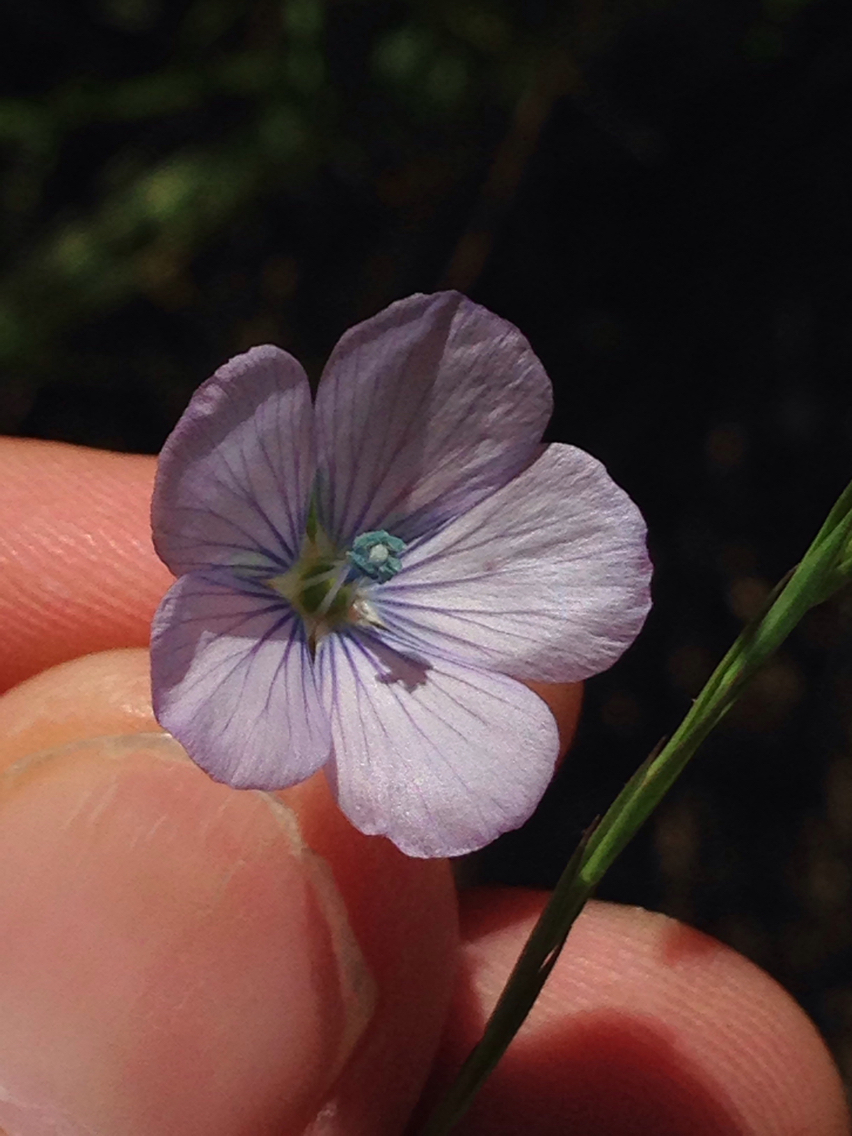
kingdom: Plantae
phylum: Tracheophyta
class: Magnoliopsida
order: Malpighiales
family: Linaceae
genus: Linum
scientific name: Linum bienne
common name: Pale flax
